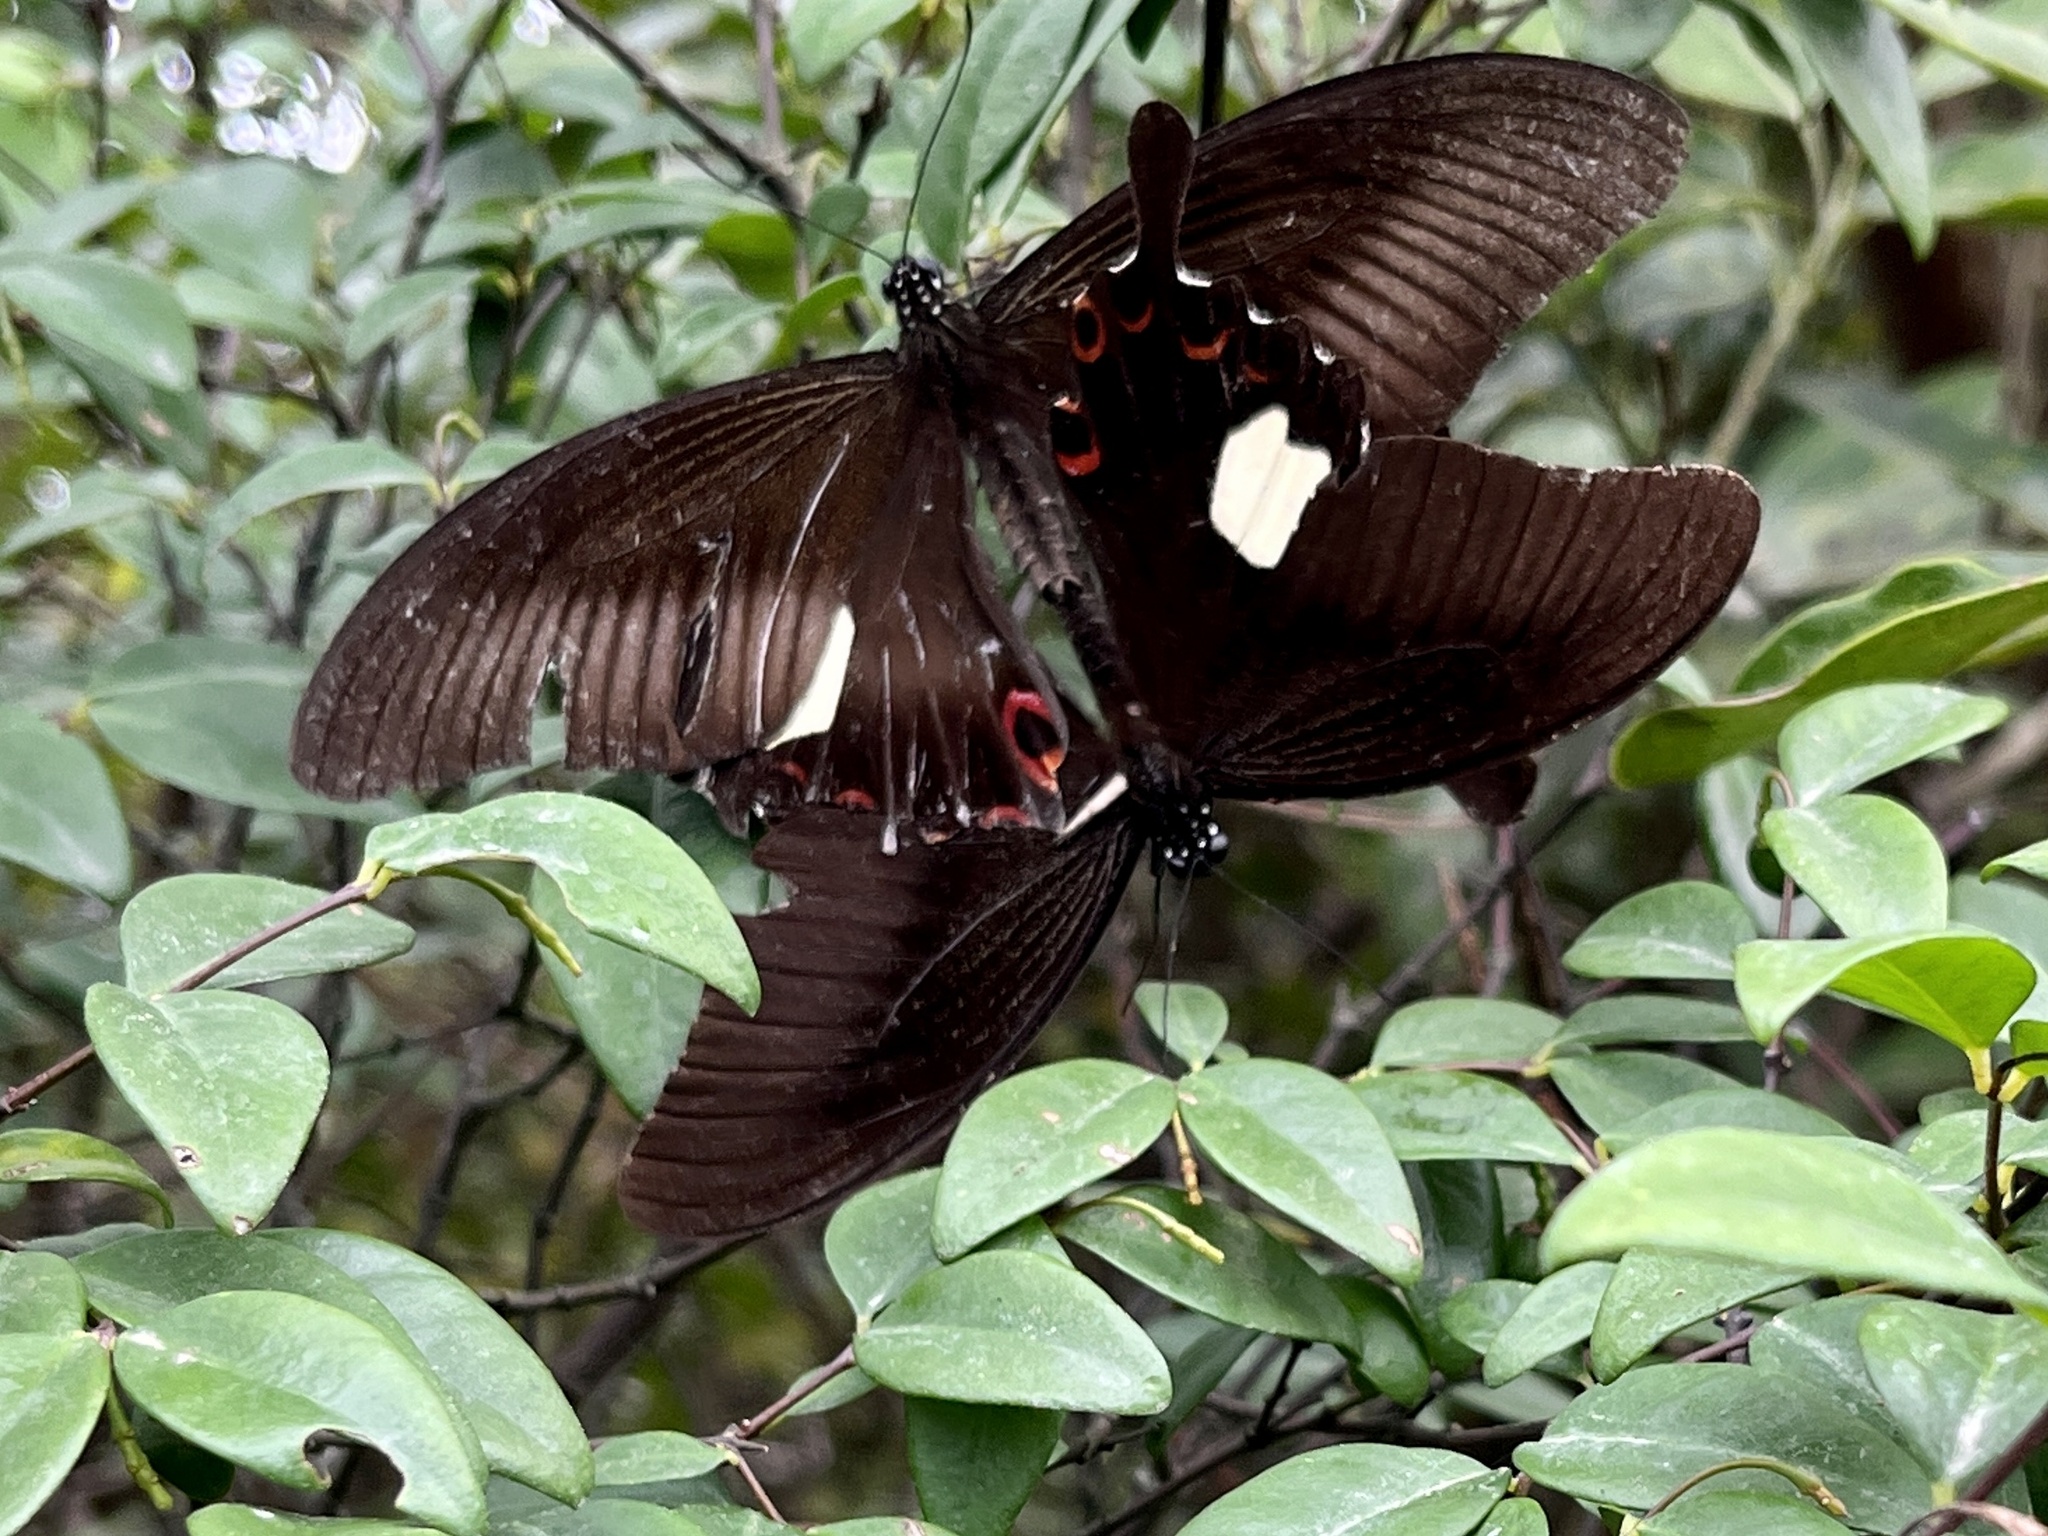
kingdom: Animalia
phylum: Arthropoda
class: Insecta
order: Lepidoptera
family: Papilionidae
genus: Papilio
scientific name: Papilio helenus
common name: Red helen
